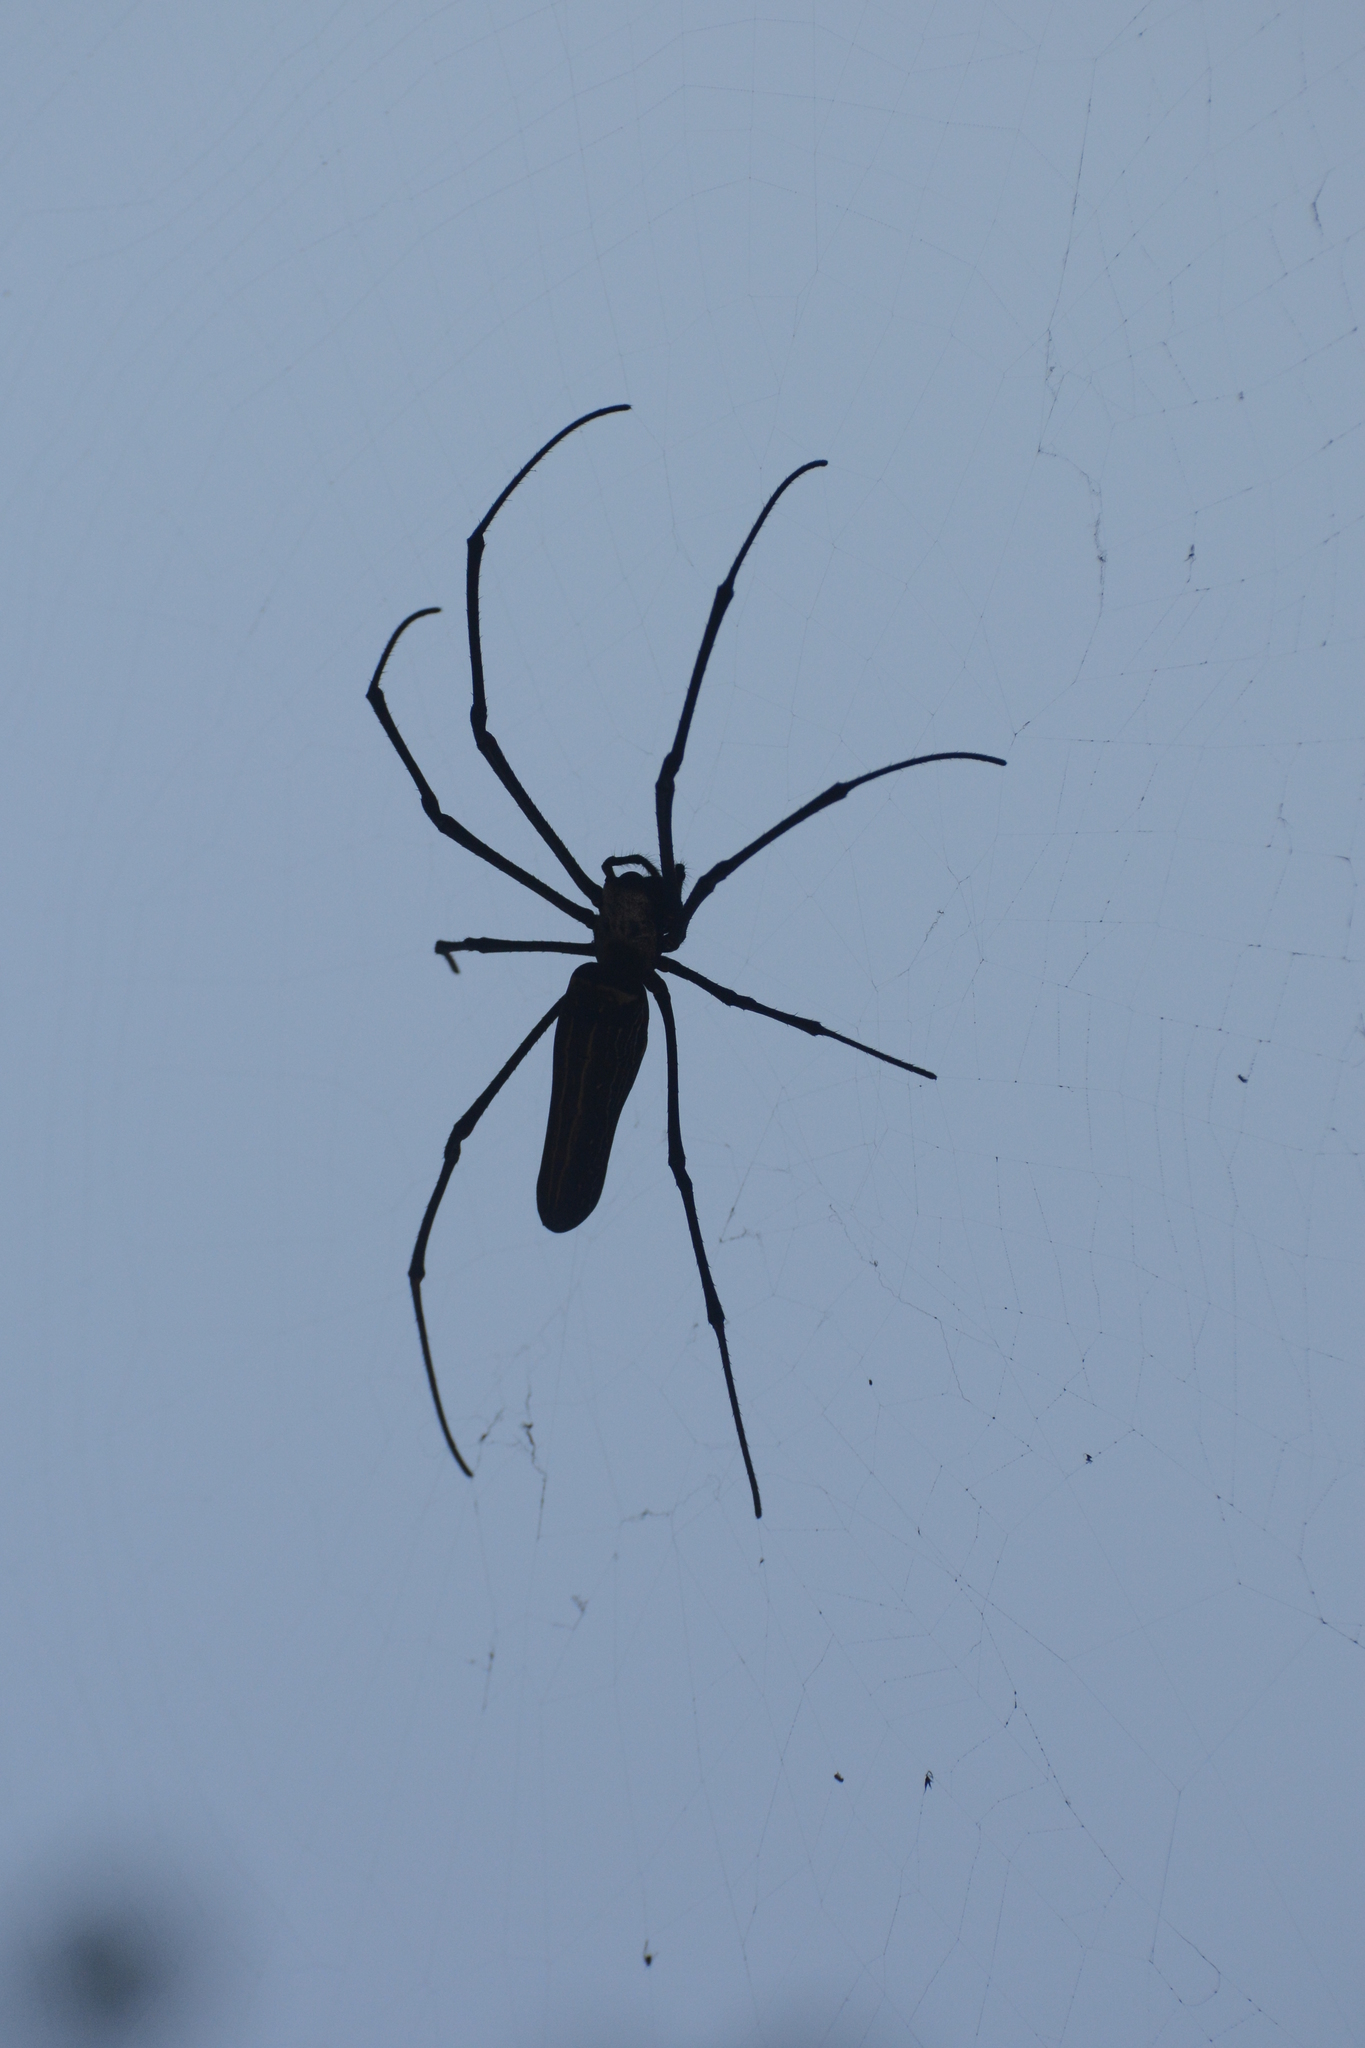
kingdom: Animalia
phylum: Arthropoda
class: Arachnida
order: Araneae
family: Araneidae
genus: Nephila
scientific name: Nephila pilipes
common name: Giant golden orb weaver
